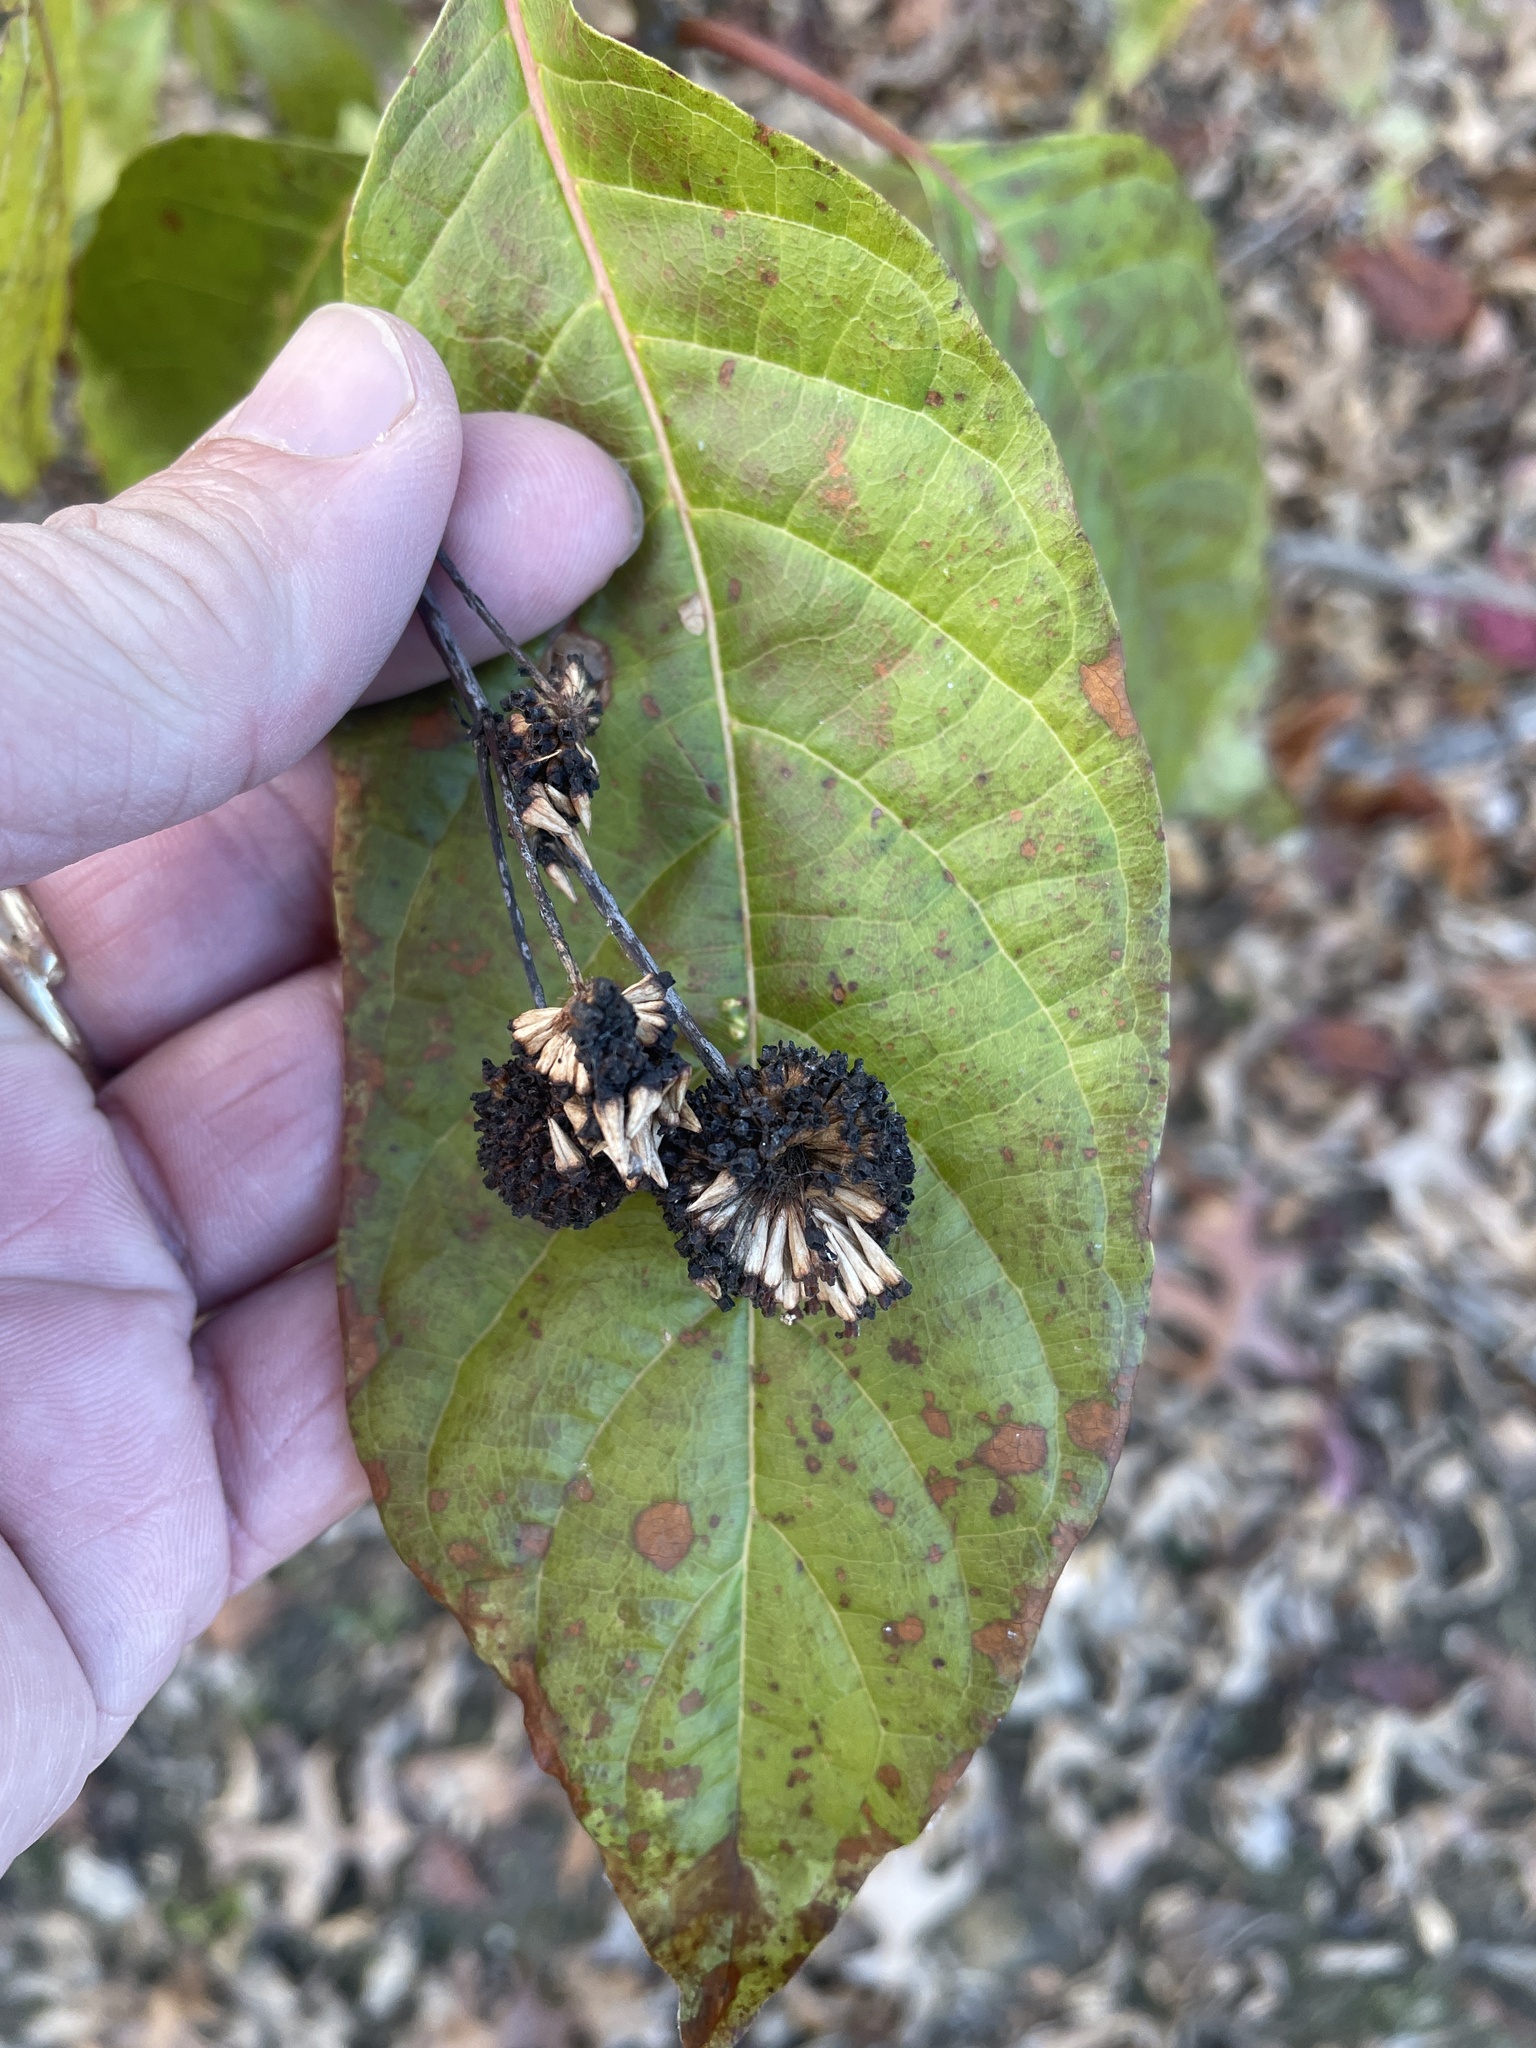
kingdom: Plantae
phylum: Tracheophyta
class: Magnoliopsida
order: Gentianales
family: Rubiaceae
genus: Cephalanthus
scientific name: Cephalanthus occidentalis
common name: Button-willow
